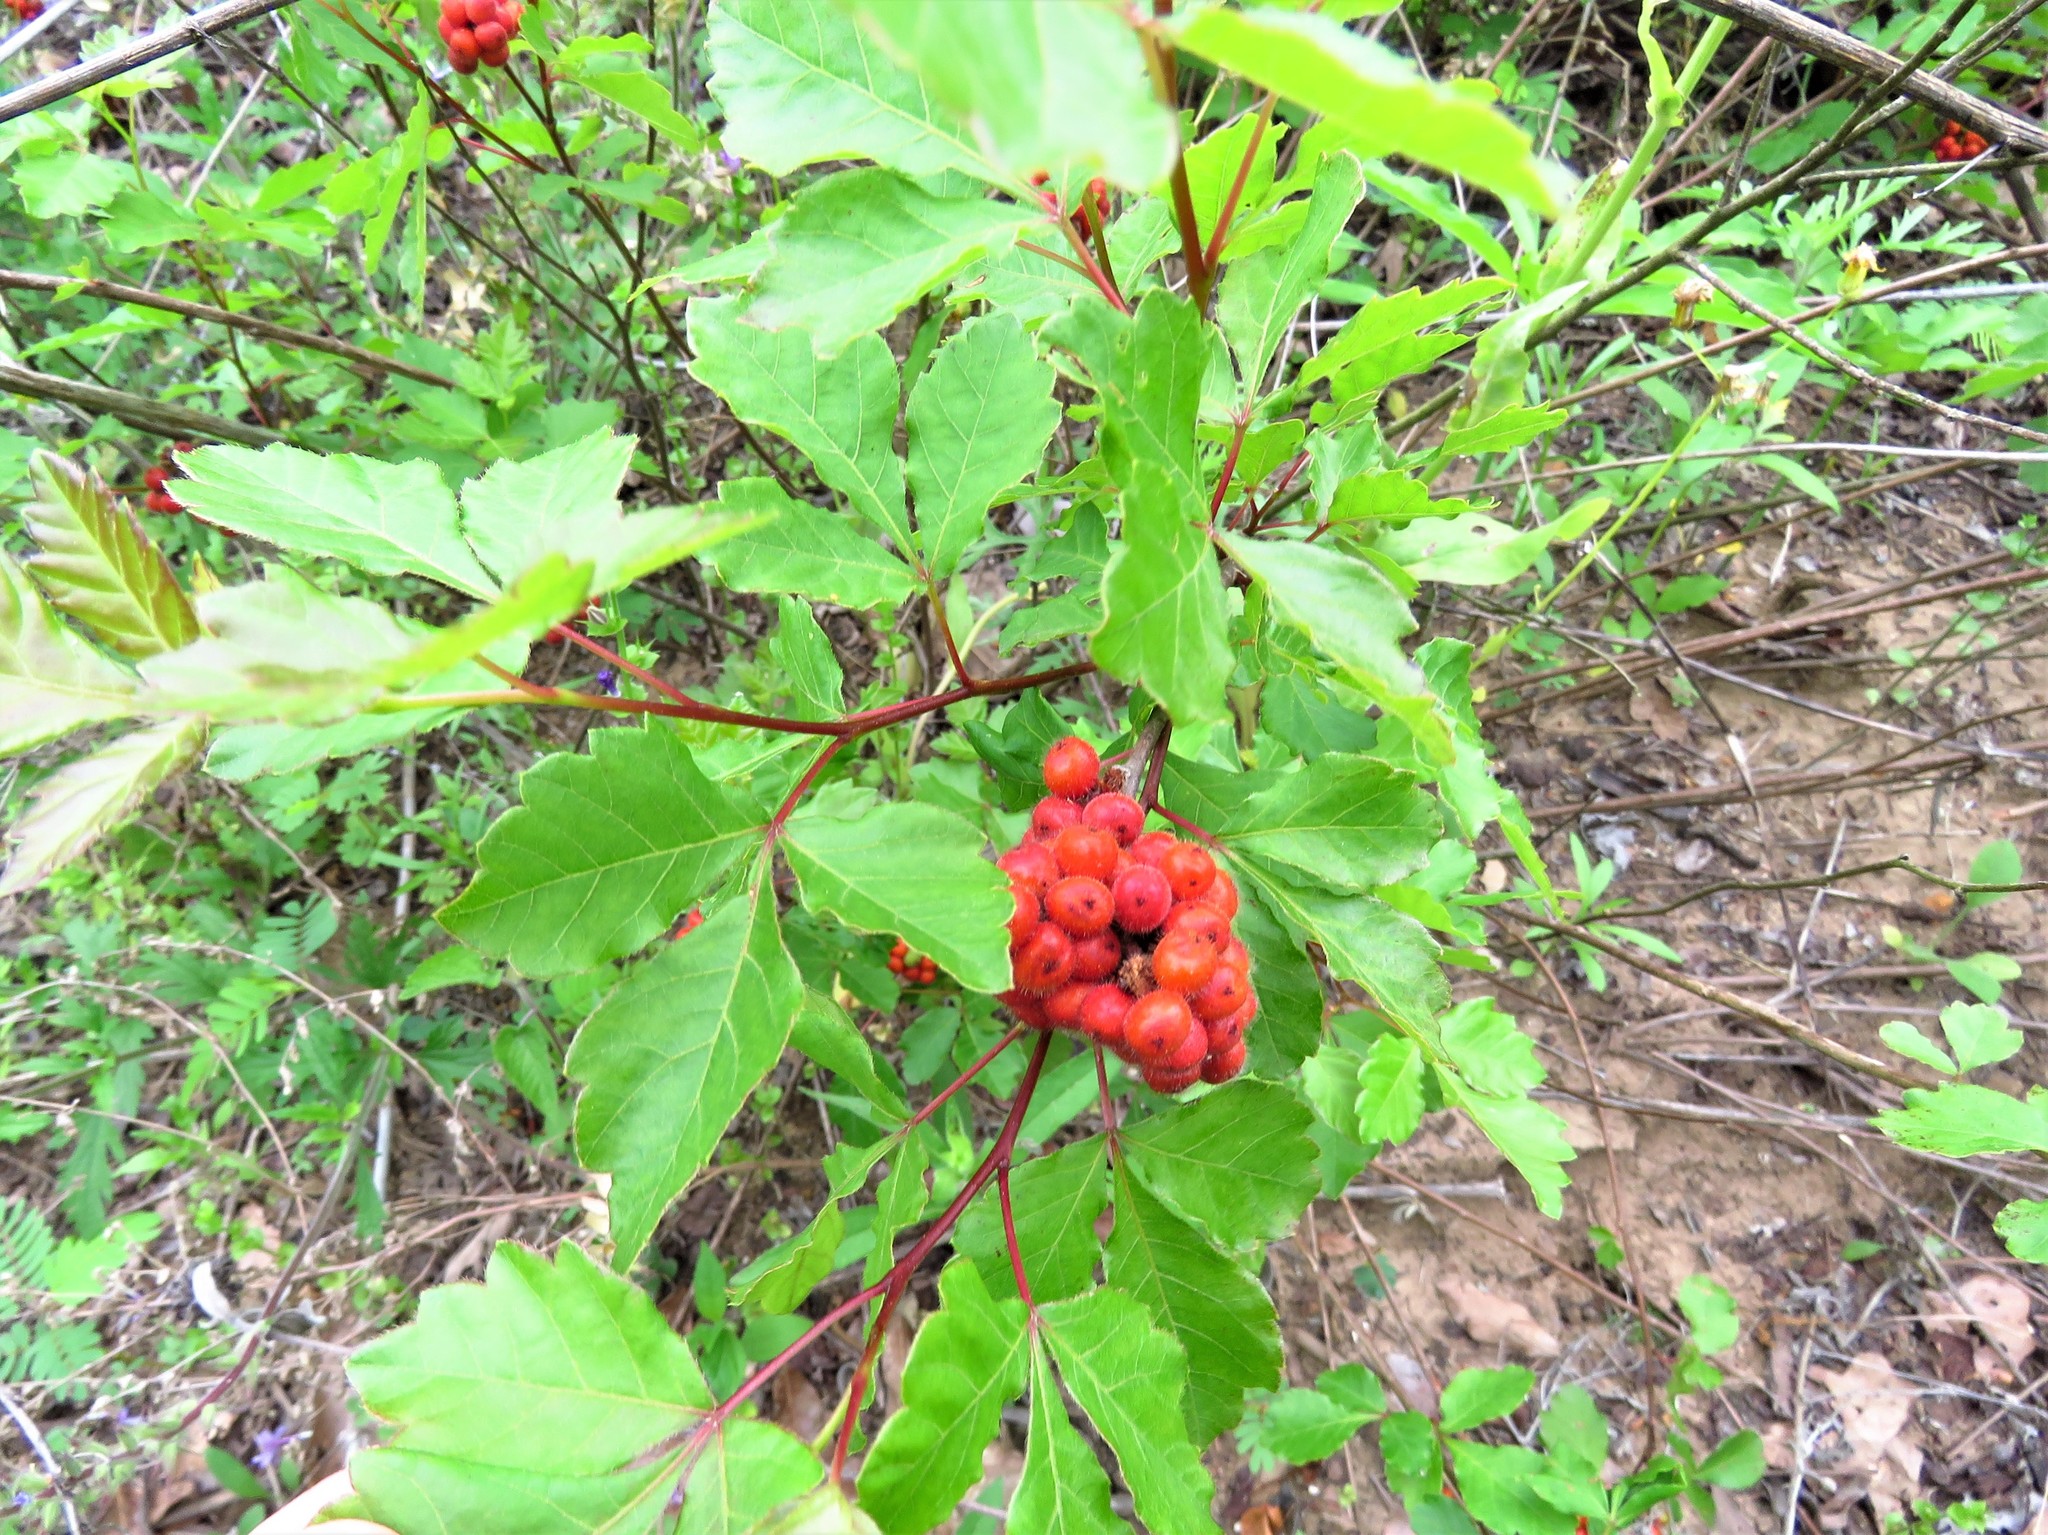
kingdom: Plantae
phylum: Tracheophyta
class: Magnoliopsida
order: Sapindales
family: Anacardiaceae
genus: Rhus
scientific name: Rhus aromatica
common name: Aromatic sumac
